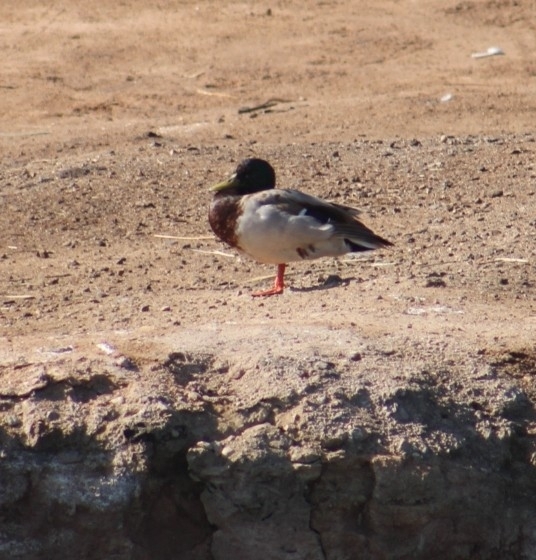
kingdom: Animalia
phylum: Chordata
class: Aves
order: Anseriformes
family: Anatidae
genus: Anas
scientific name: Anas platyrhynchos
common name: Mallard
